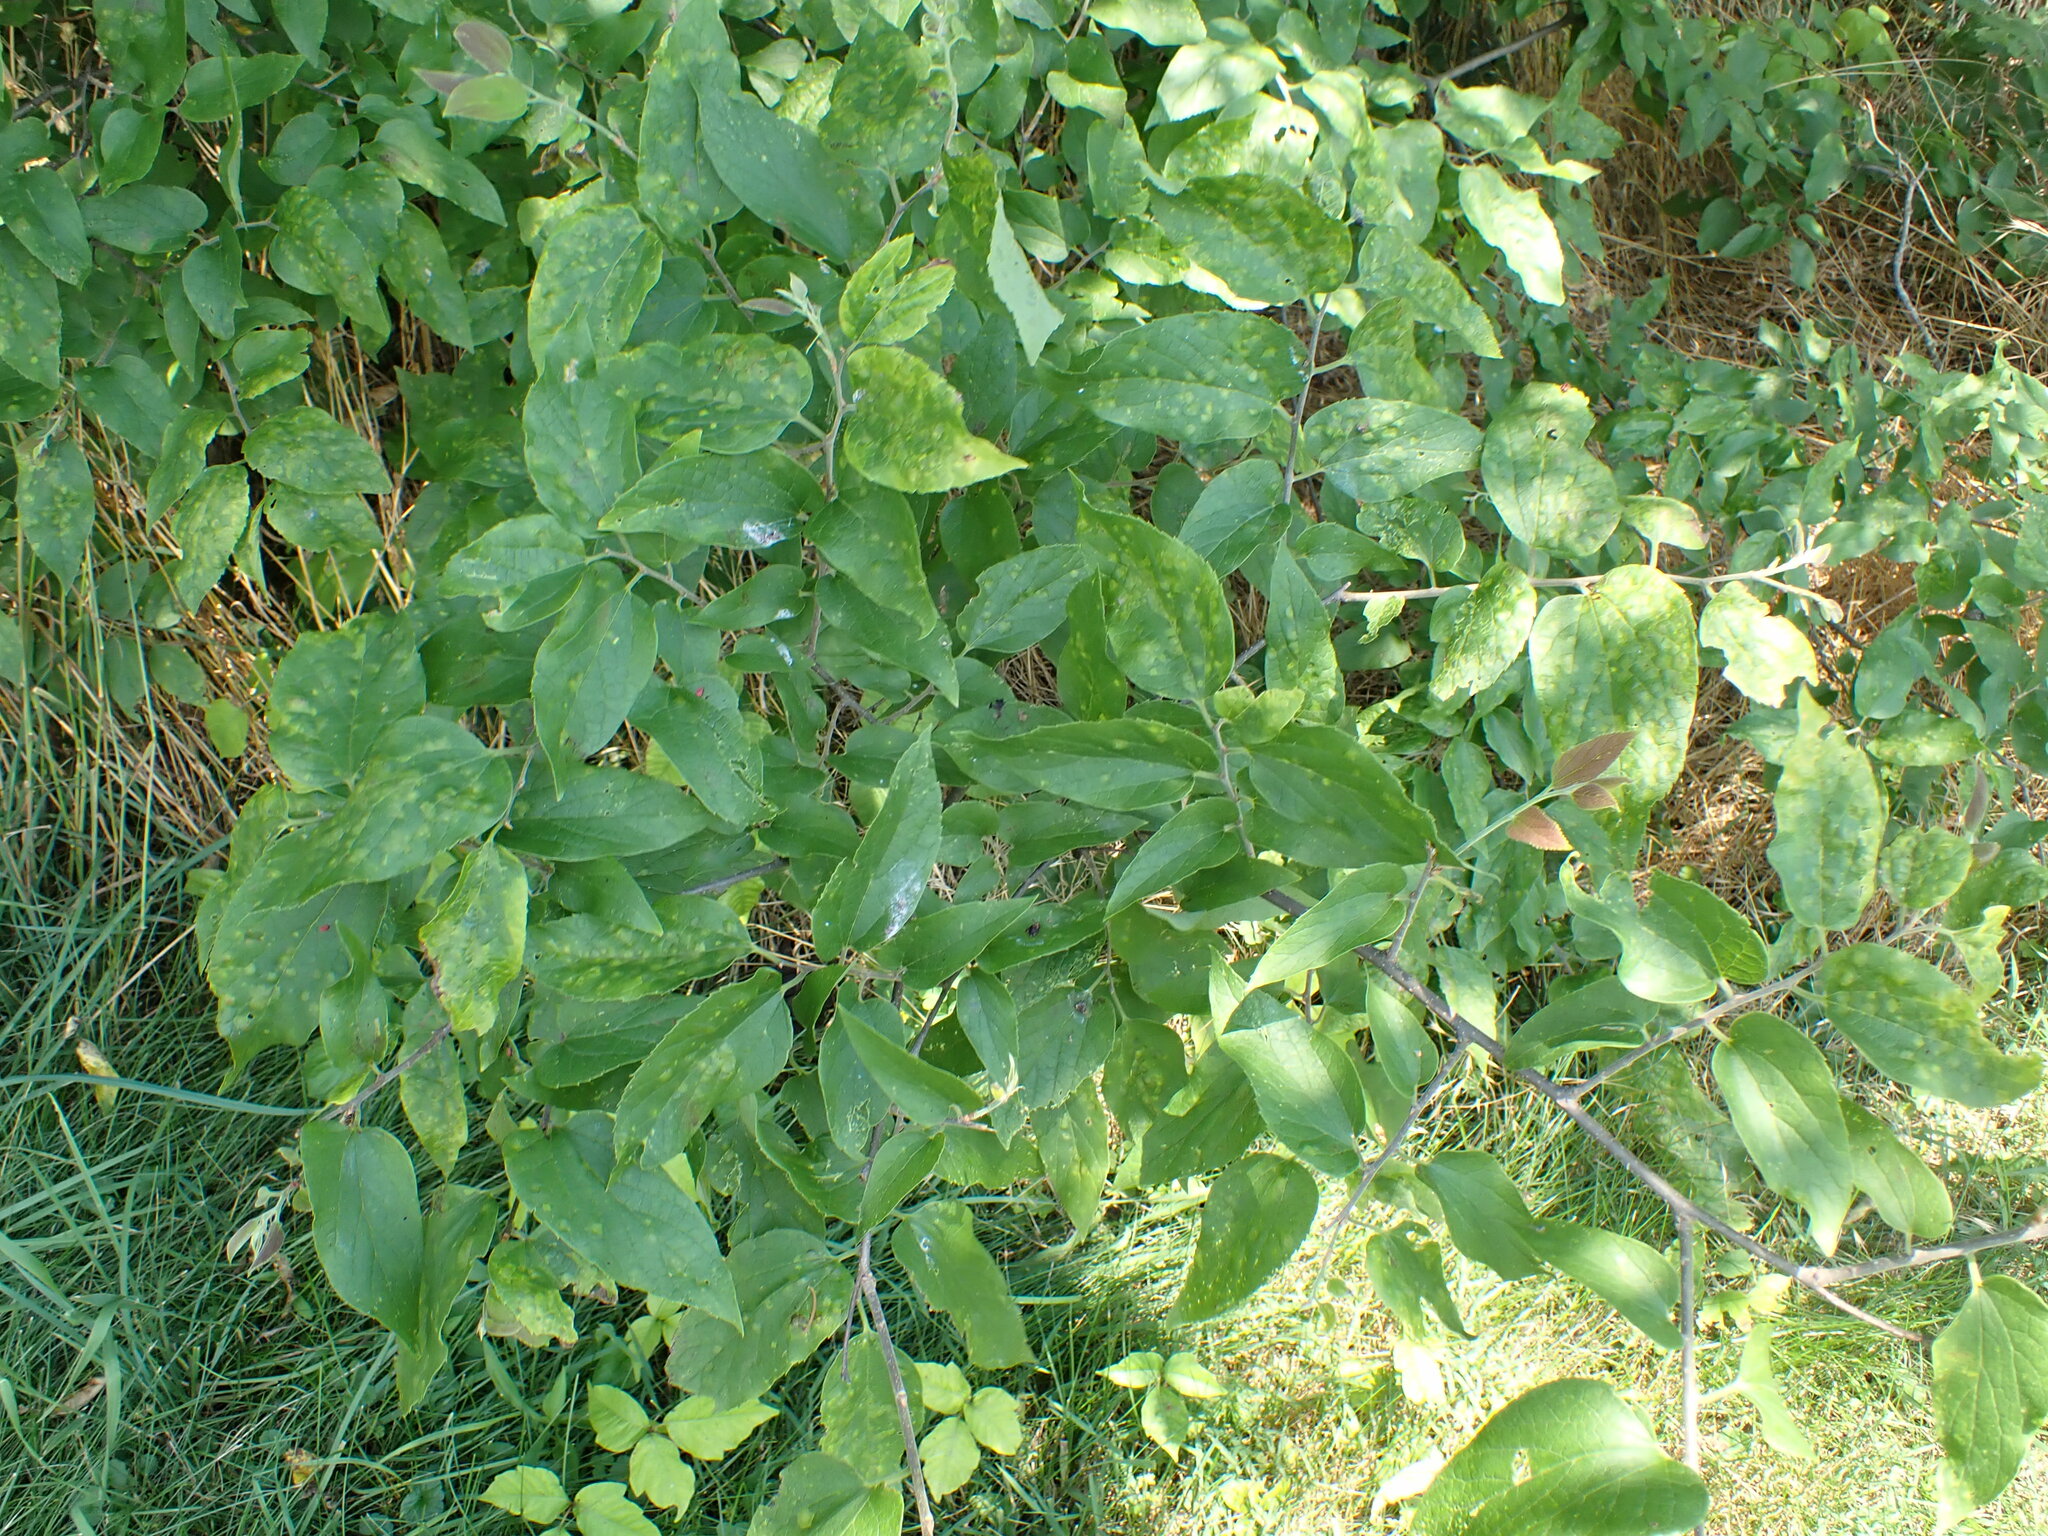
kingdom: Plantae
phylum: Tracheophyta
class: Magnoliopsida
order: Rosales
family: Cannabaceae
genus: Celtis
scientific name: Celtis occidentalis
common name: Common hackberry
